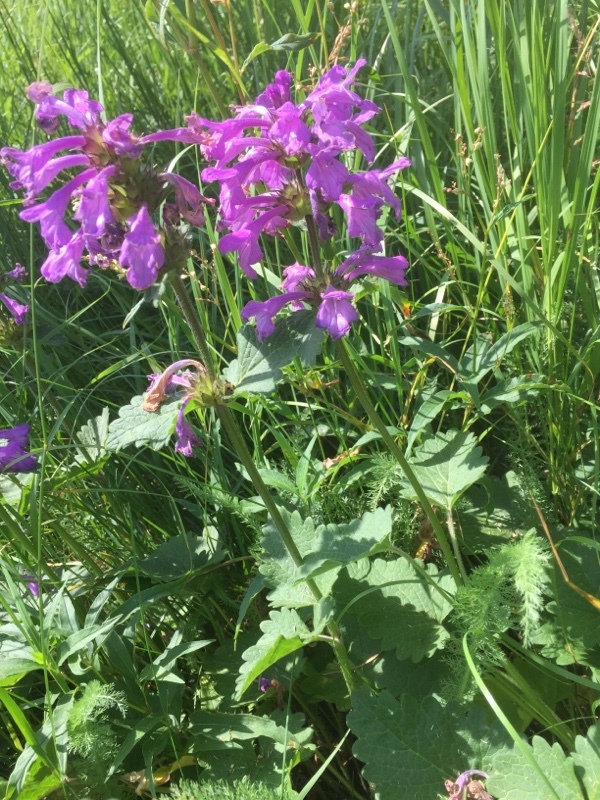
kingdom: Plantae
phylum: Tracheophyta
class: Magnoliopsida
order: Lamiales
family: Lamiaceae
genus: Betonica
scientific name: Betonica macrantha
